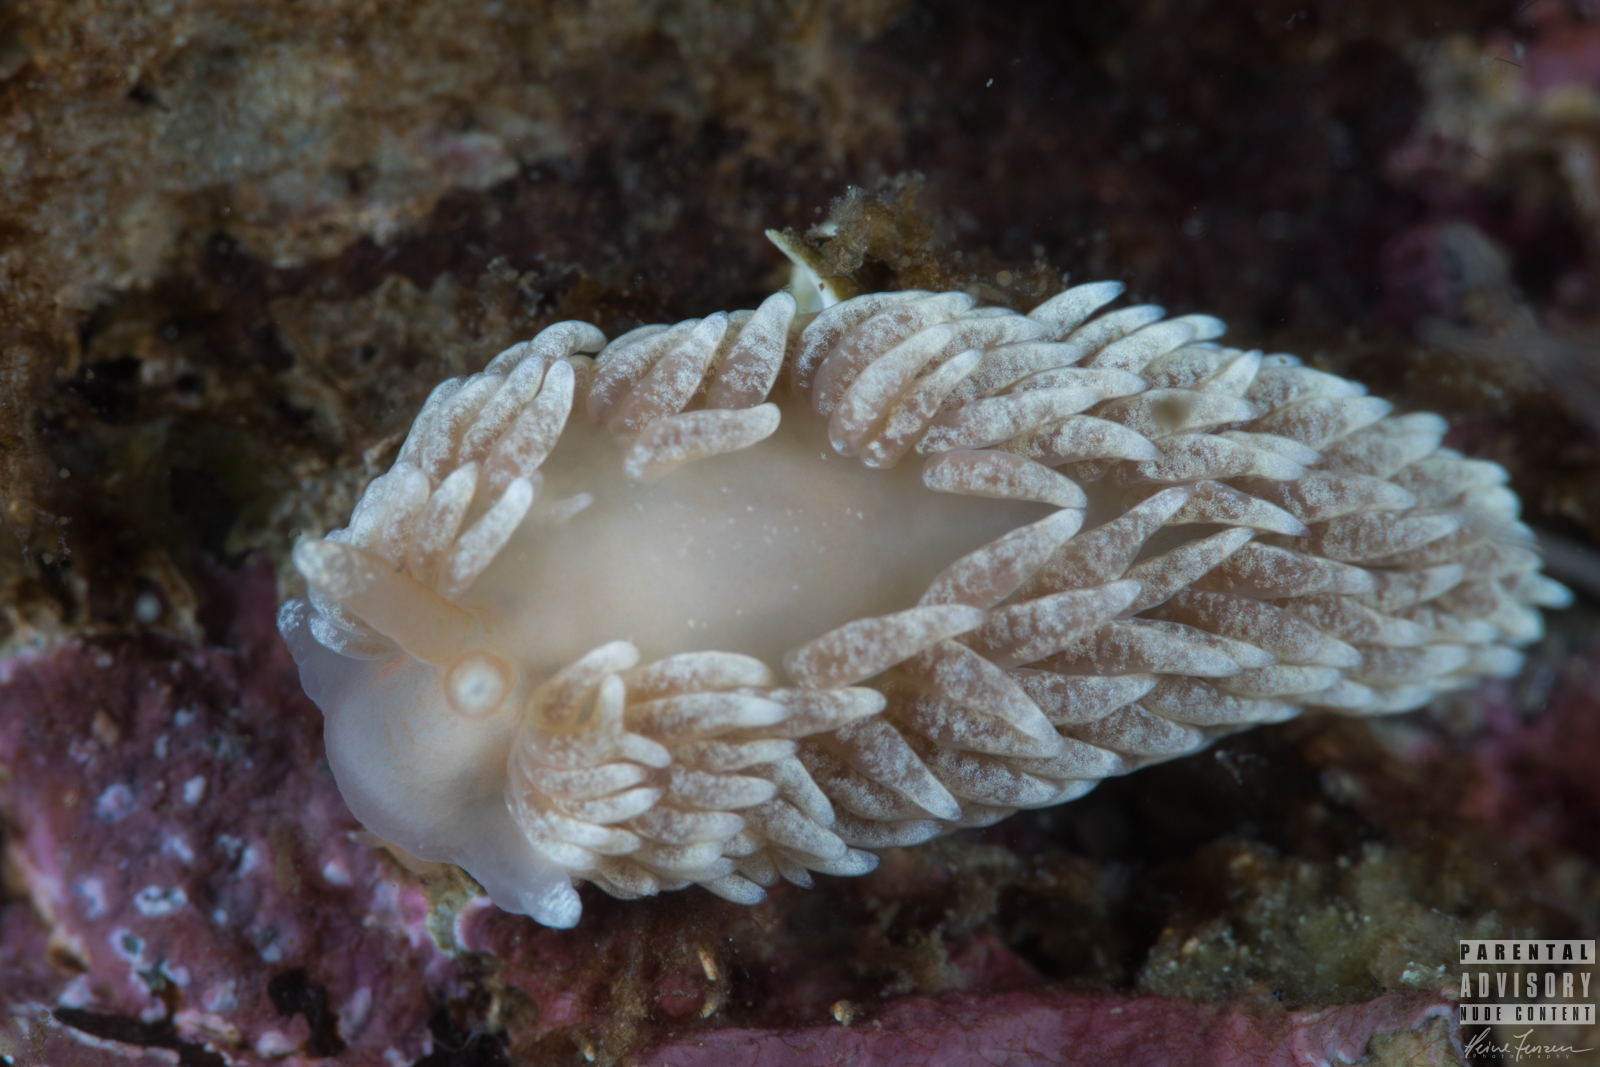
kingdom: Animalia
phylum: Mollusca
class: Gastropoda
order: Nudibranchia
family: Aeolidiidae
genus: Aeolidiella
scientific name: Aeolidiella glauca
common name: Orange-brown aeolid
